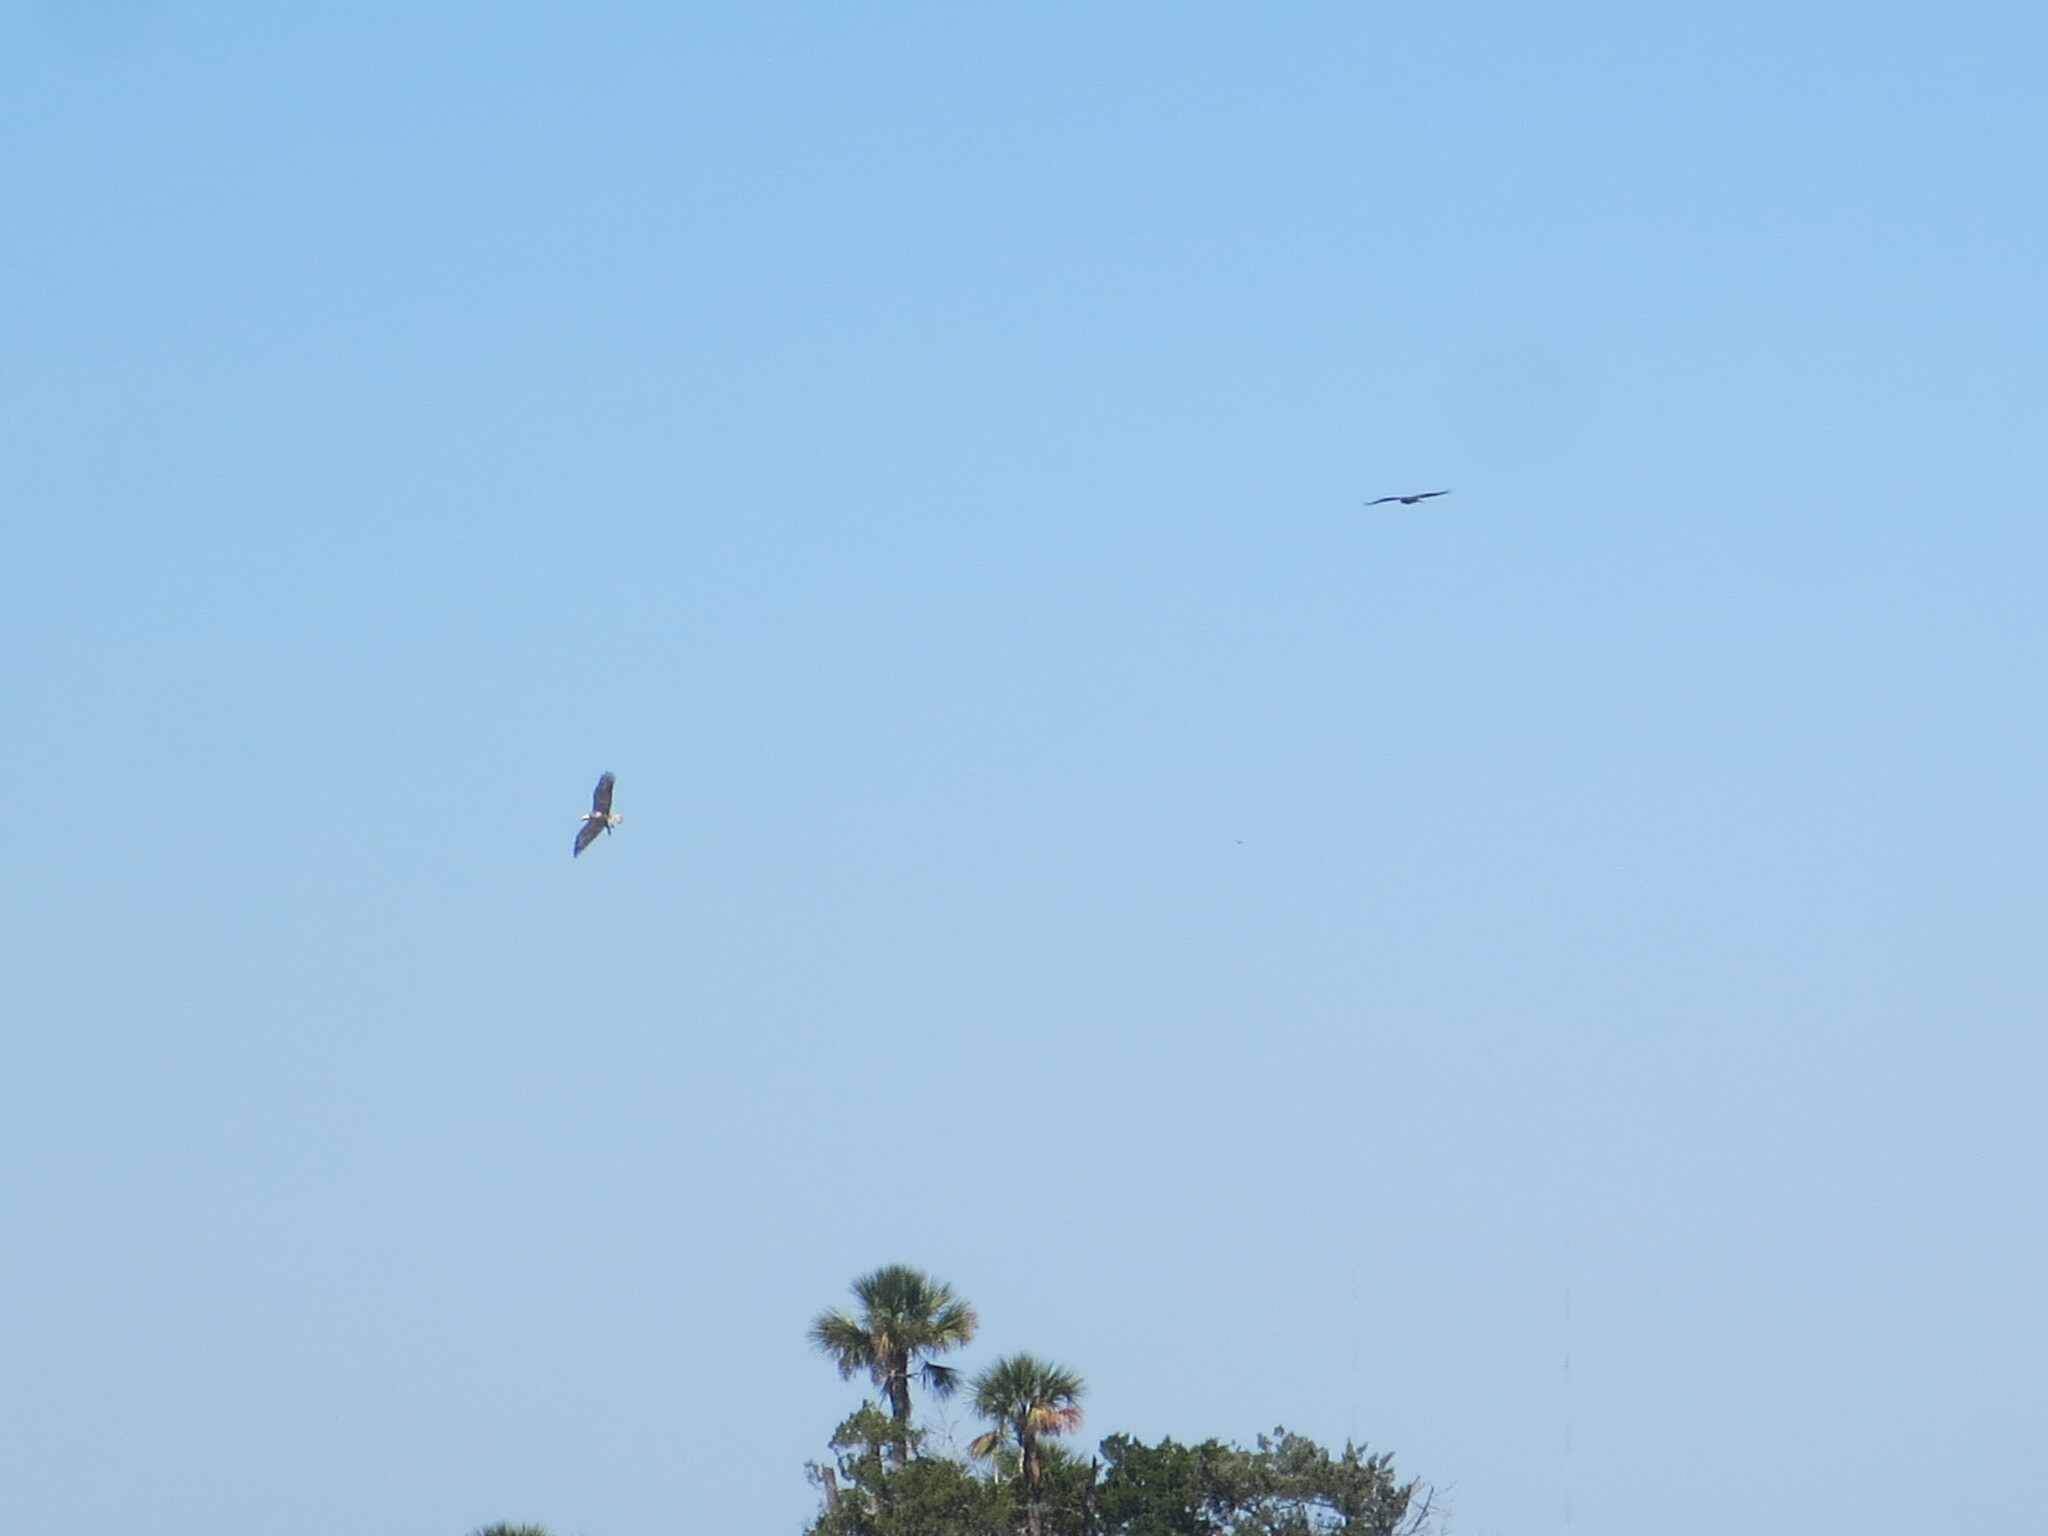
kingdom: Animalia
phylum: Chordata
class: Aves
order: Accipitriformes
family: Accipitridae
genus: Haliaeetus
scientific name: Haliaeetus leucocephalus
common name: Bald eagle
